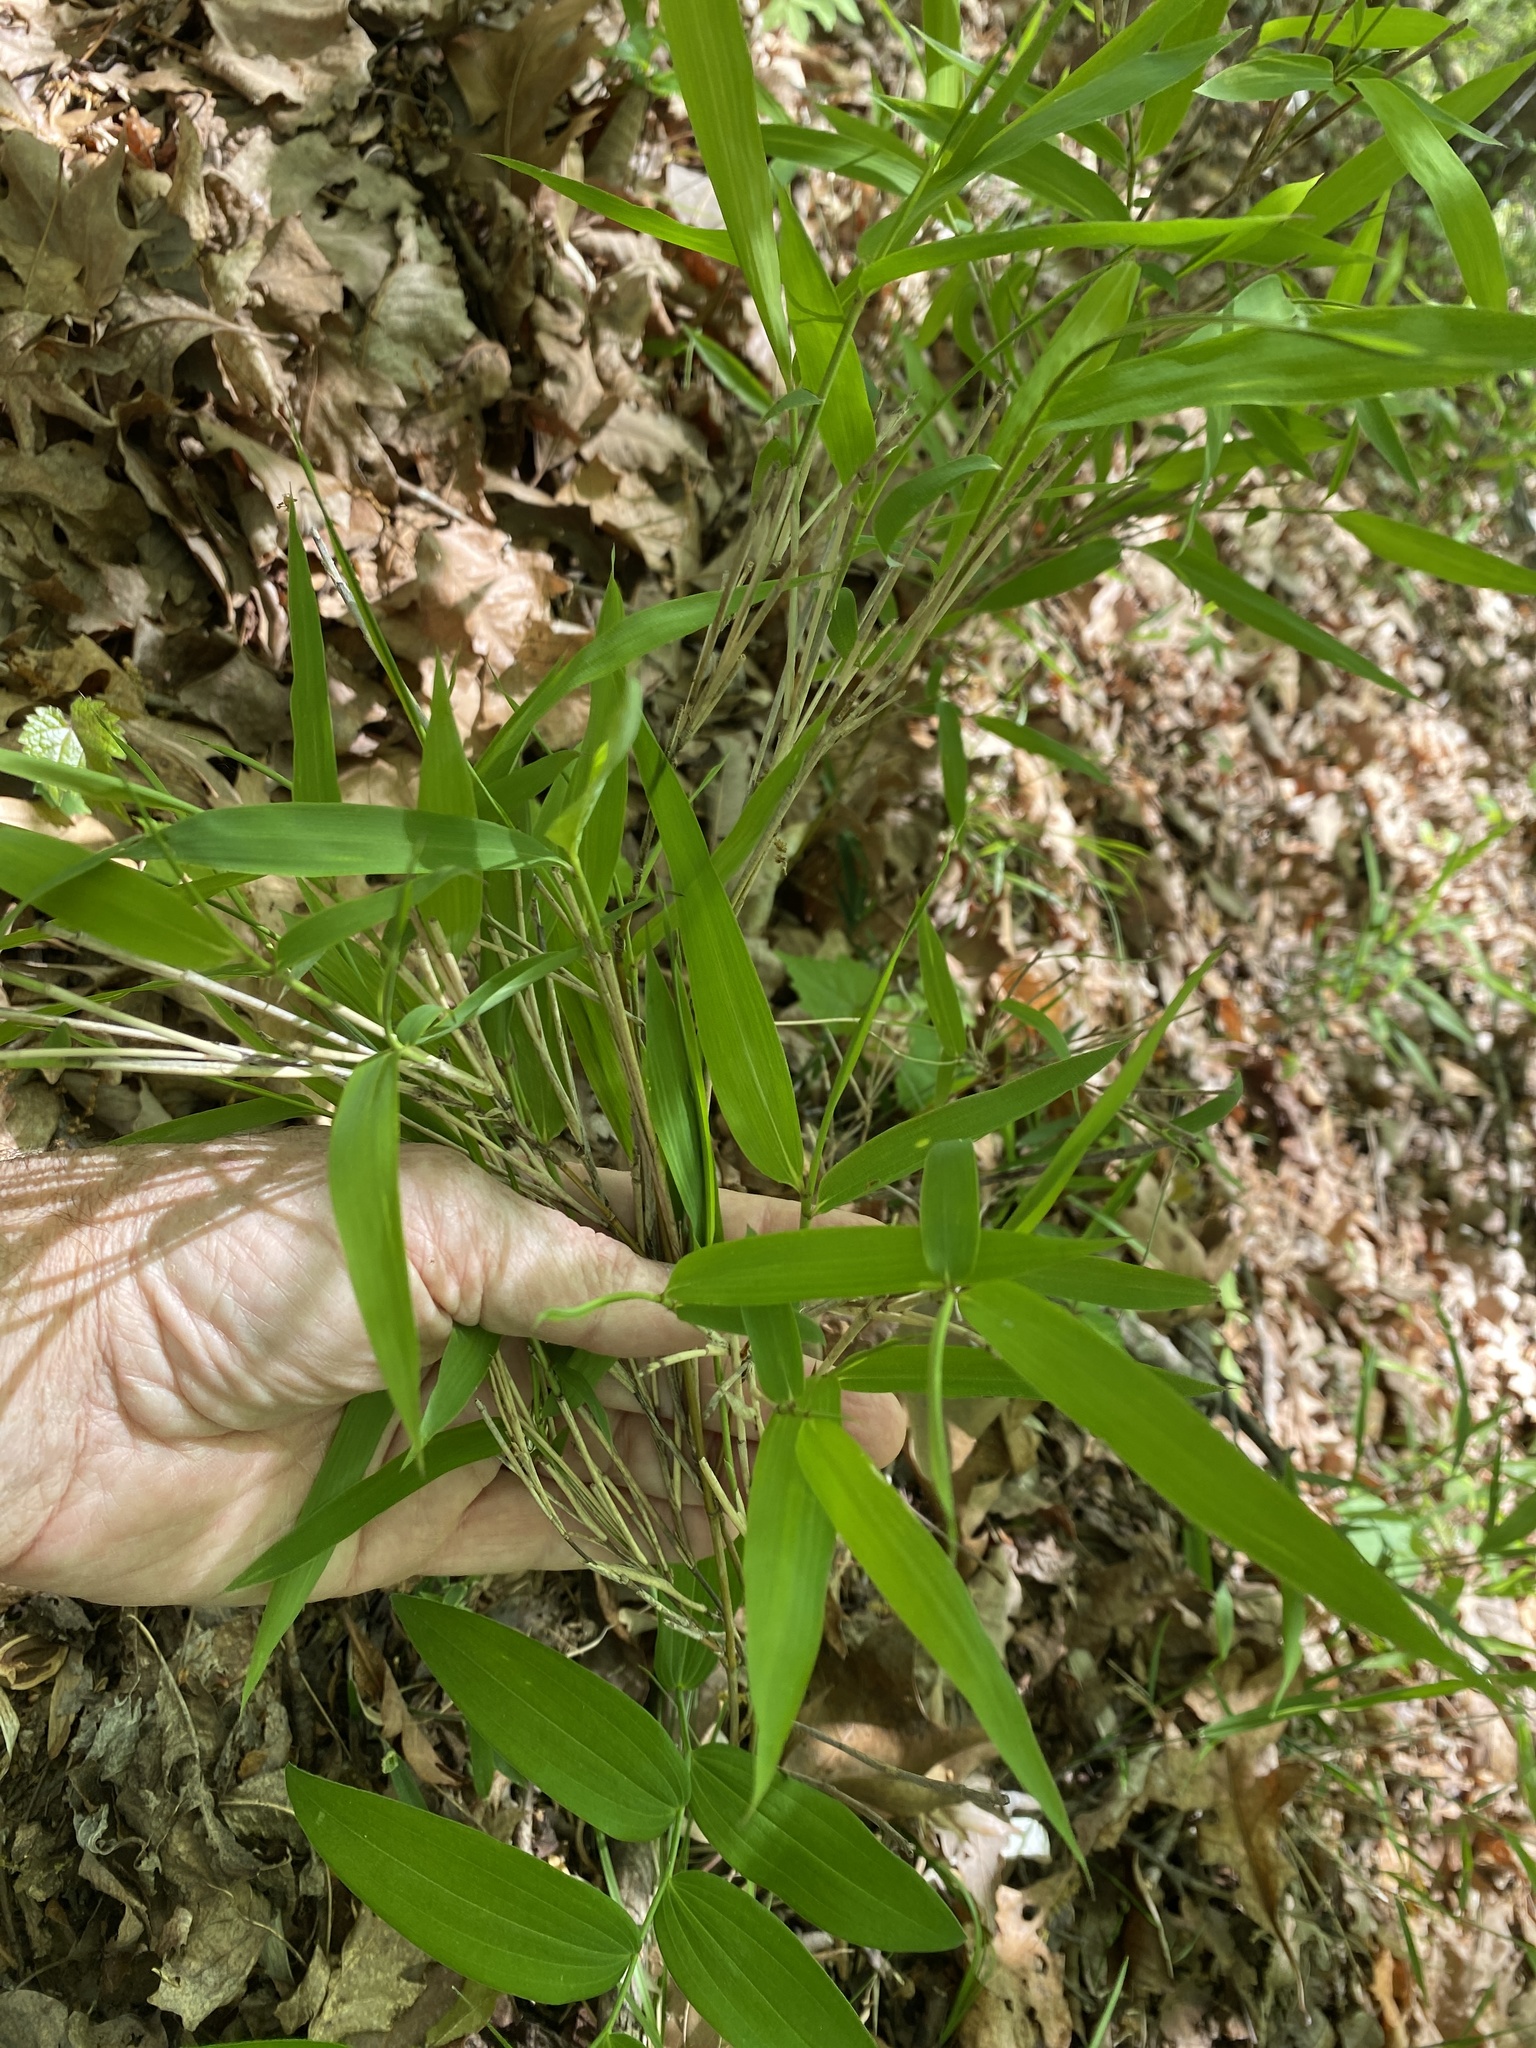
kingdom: Plantae
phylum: Tracheophyta
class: Liliopsida
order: Poales
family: Poaceae
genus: Arundinaria
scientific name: Arundinaria appalachiana
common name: Hill cane
